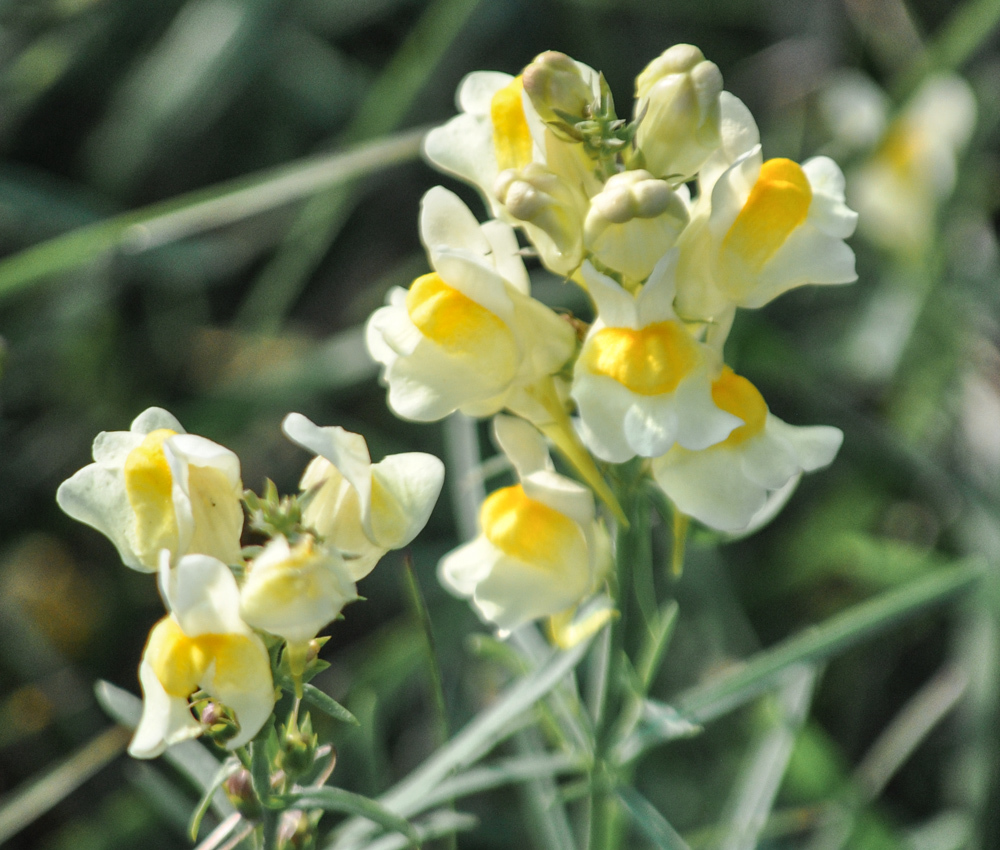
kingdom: Plantae
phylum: Tracheophyta
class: Magnoliopsida
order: Lamiales
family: Plantaginaceae
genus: Linaria
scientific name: Linaria vulgaris
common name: Butter and eggs
